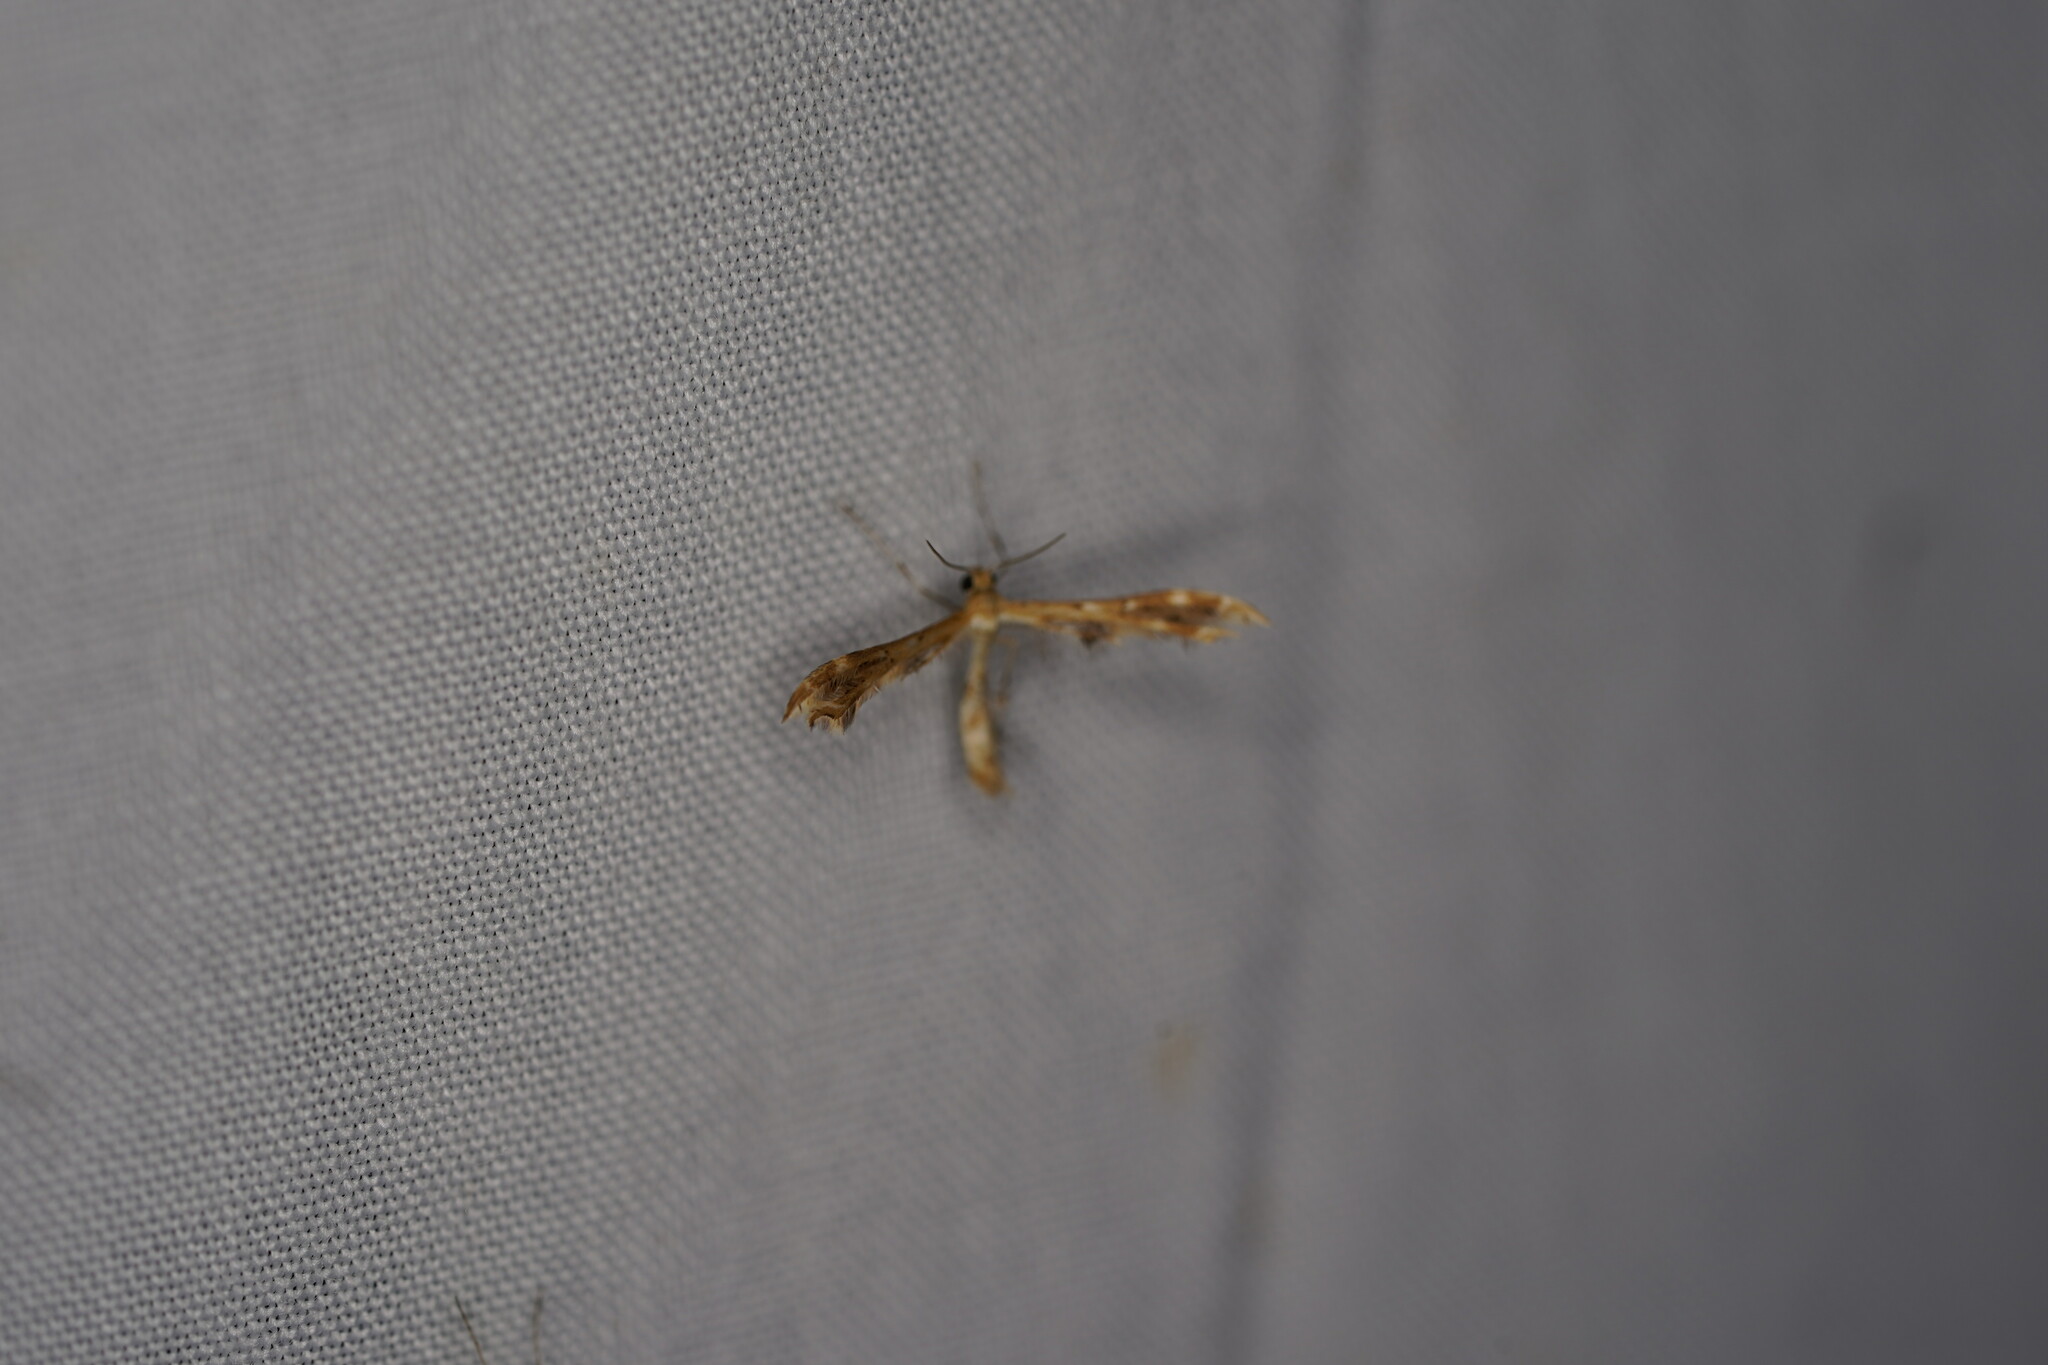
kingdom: Animalia
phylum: Arthropoda
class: Insecta
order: Lepidoptera
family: Pterophoridae
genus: Sphenarches
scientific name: Sphenarches anisodactylus
